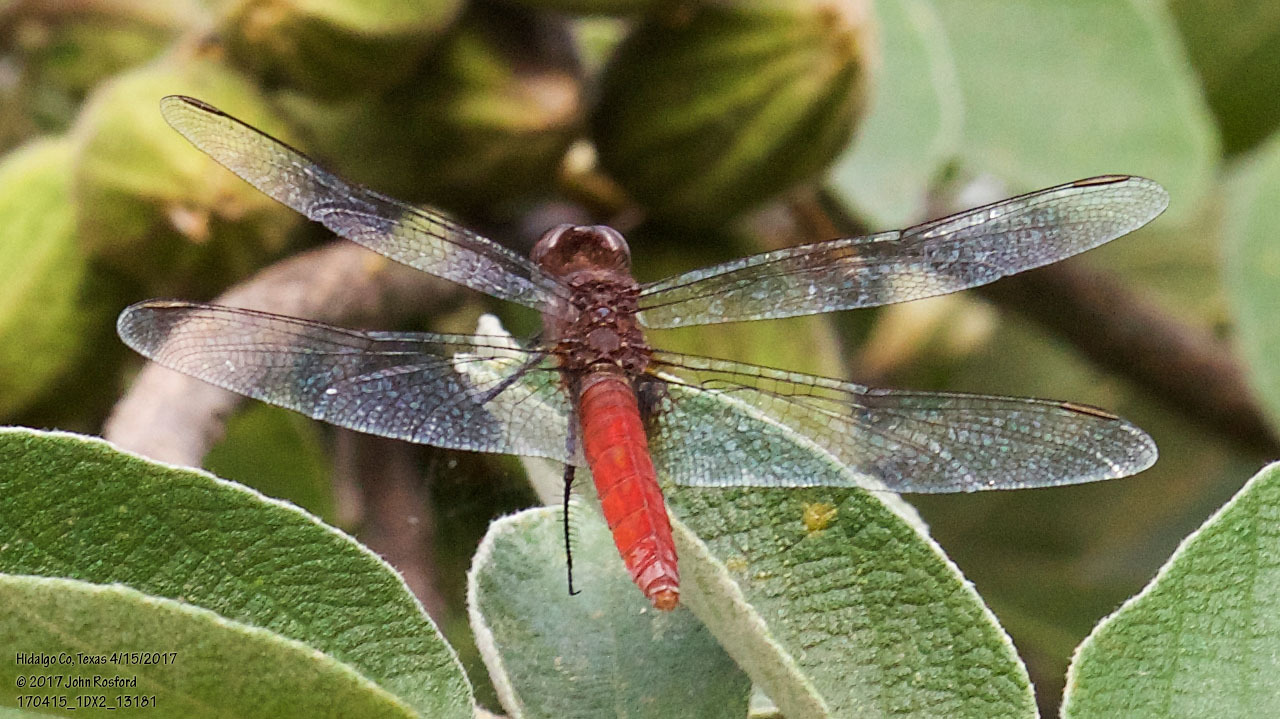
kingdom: Animalia
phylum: Arthropoda
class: Insecta
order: Odonata
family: Libellulidae
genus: Planiplax
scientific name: Planiplax sanguiniventris
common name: Mexican scarlet-tail
